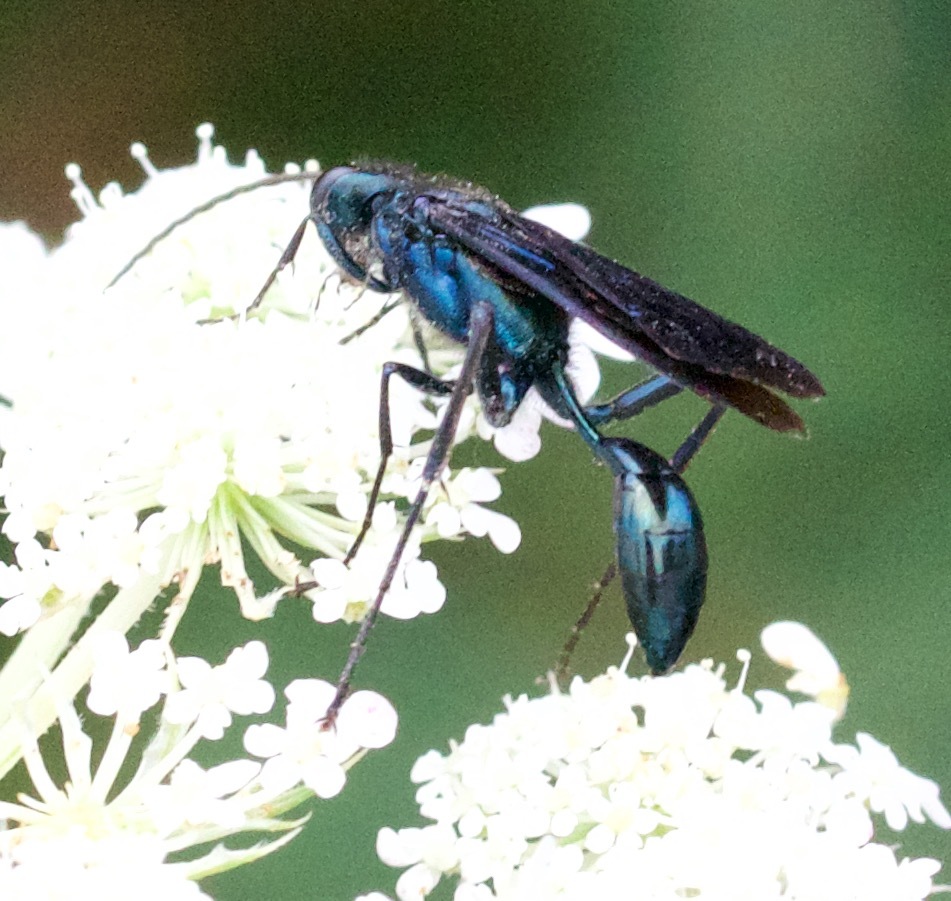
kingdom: Animalia
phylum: Arthropoda
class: Insecta
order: Hymenoptera
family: Sphecidae
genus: Chalybion
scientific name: Chalybion californicum
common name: Mud dauber
